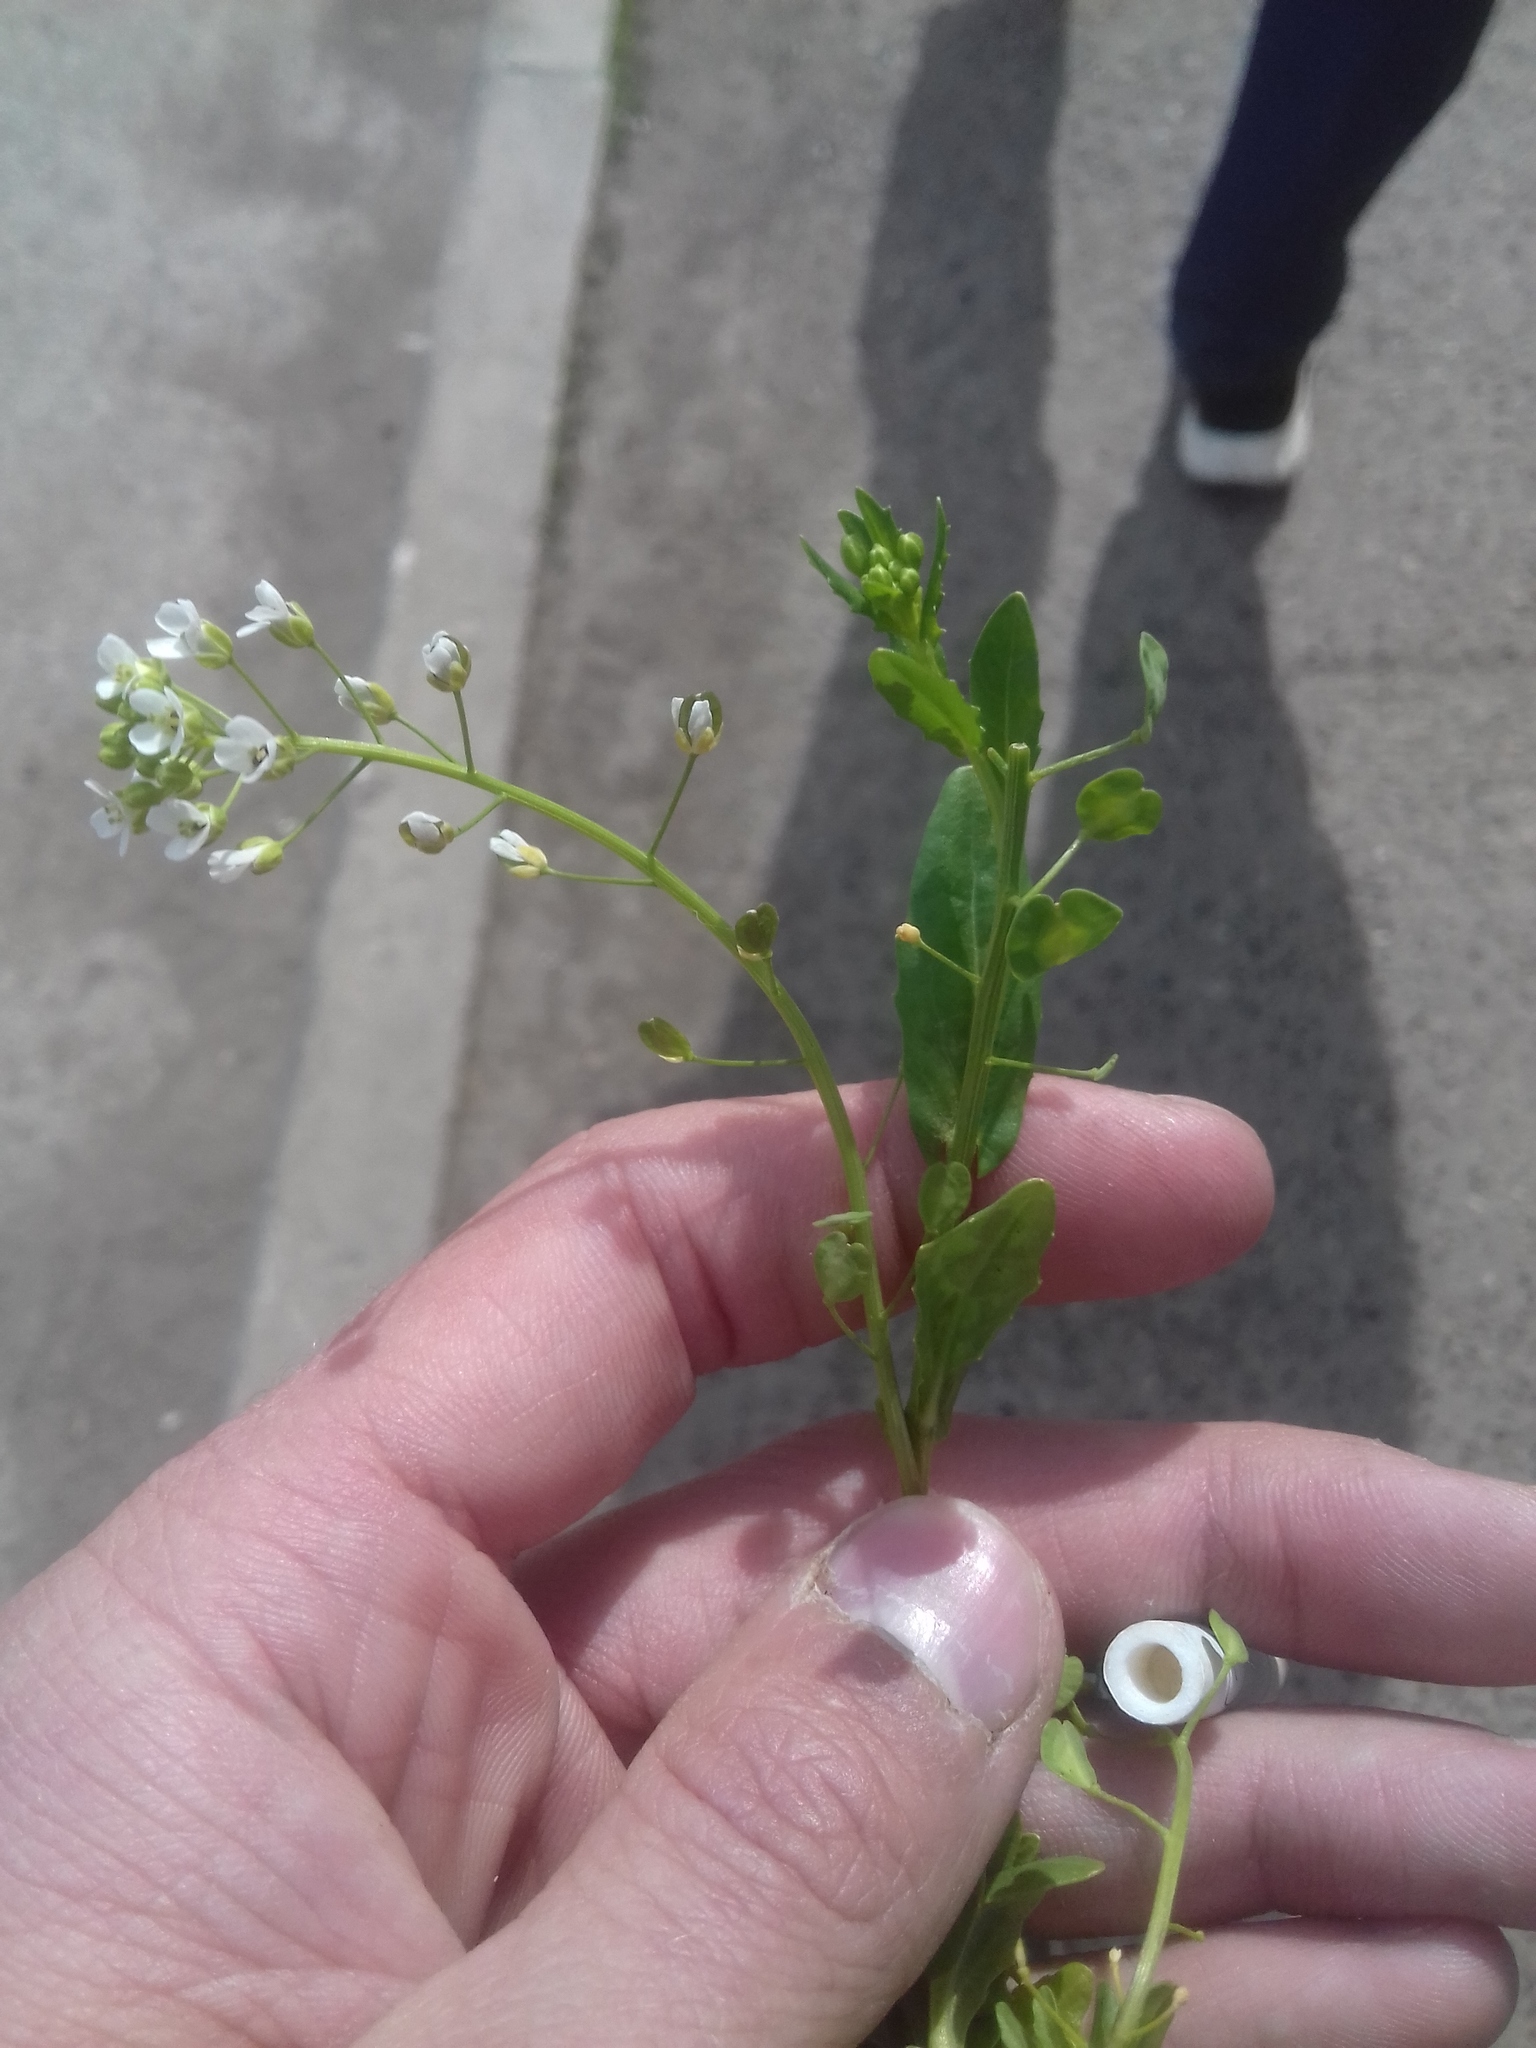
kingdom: Plantae
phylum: Tracheophyta
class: Magnoliopsida
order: Brassicales
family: Brassicaceae
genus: Thlaspi
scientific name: Thlaspi arvense
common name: Field pennycress
